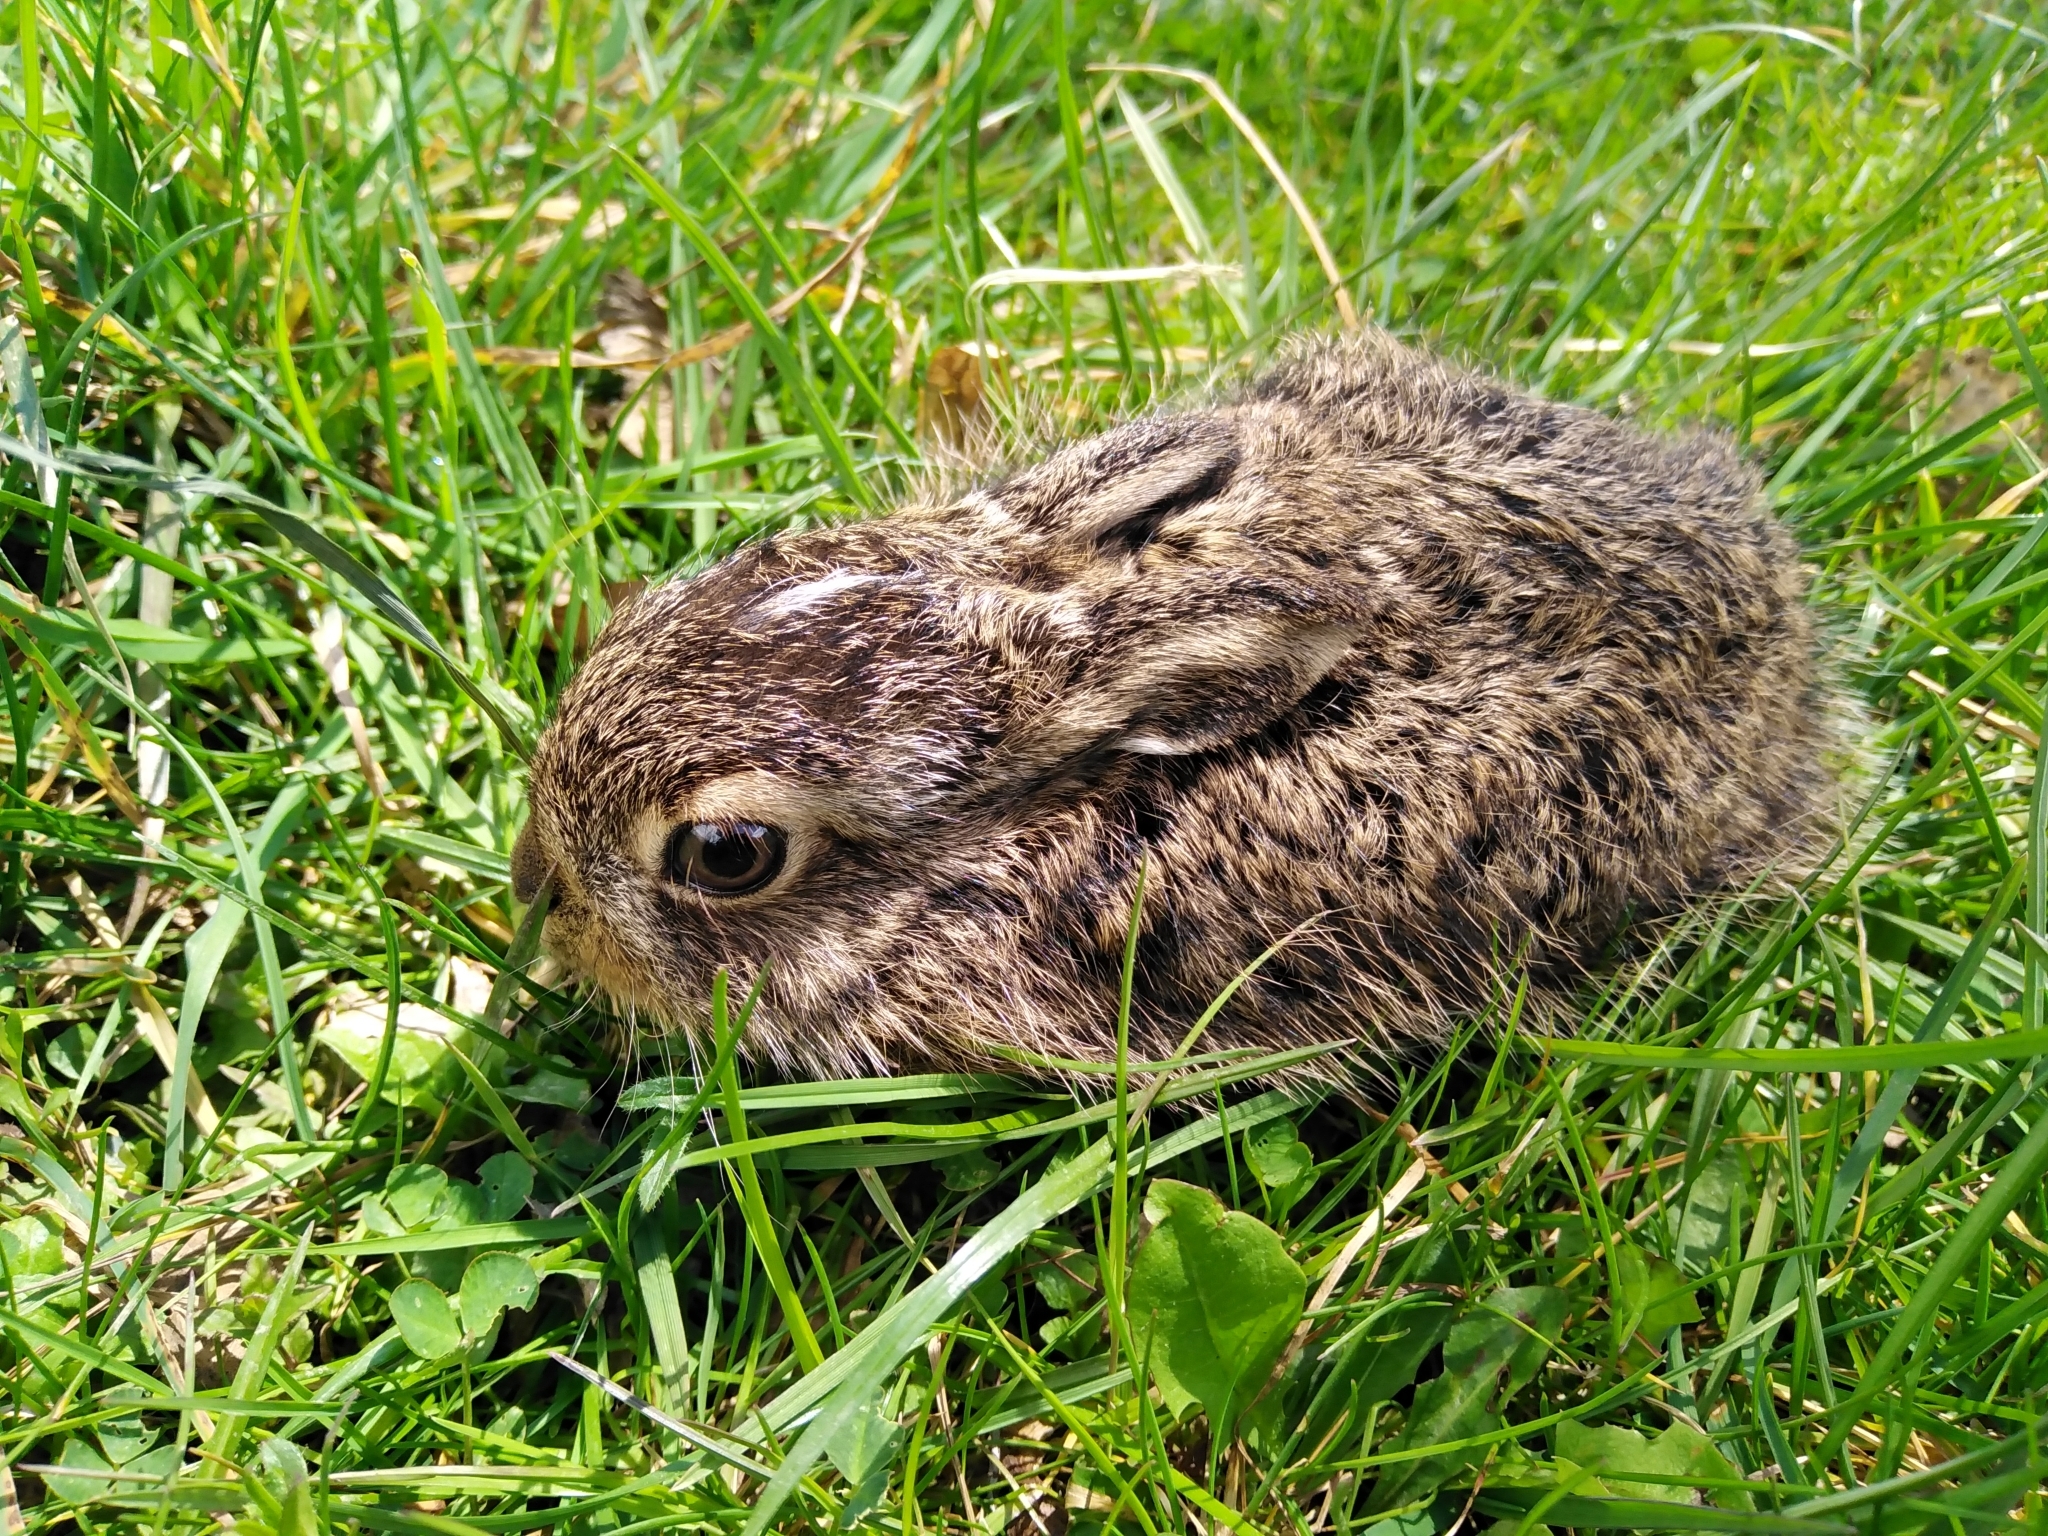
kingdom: Animalia
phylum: Chordata
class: Mammalia
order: Lagomorpha
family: Leporidae
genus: Lepus
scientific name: Lepus europaeus
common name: European hare
